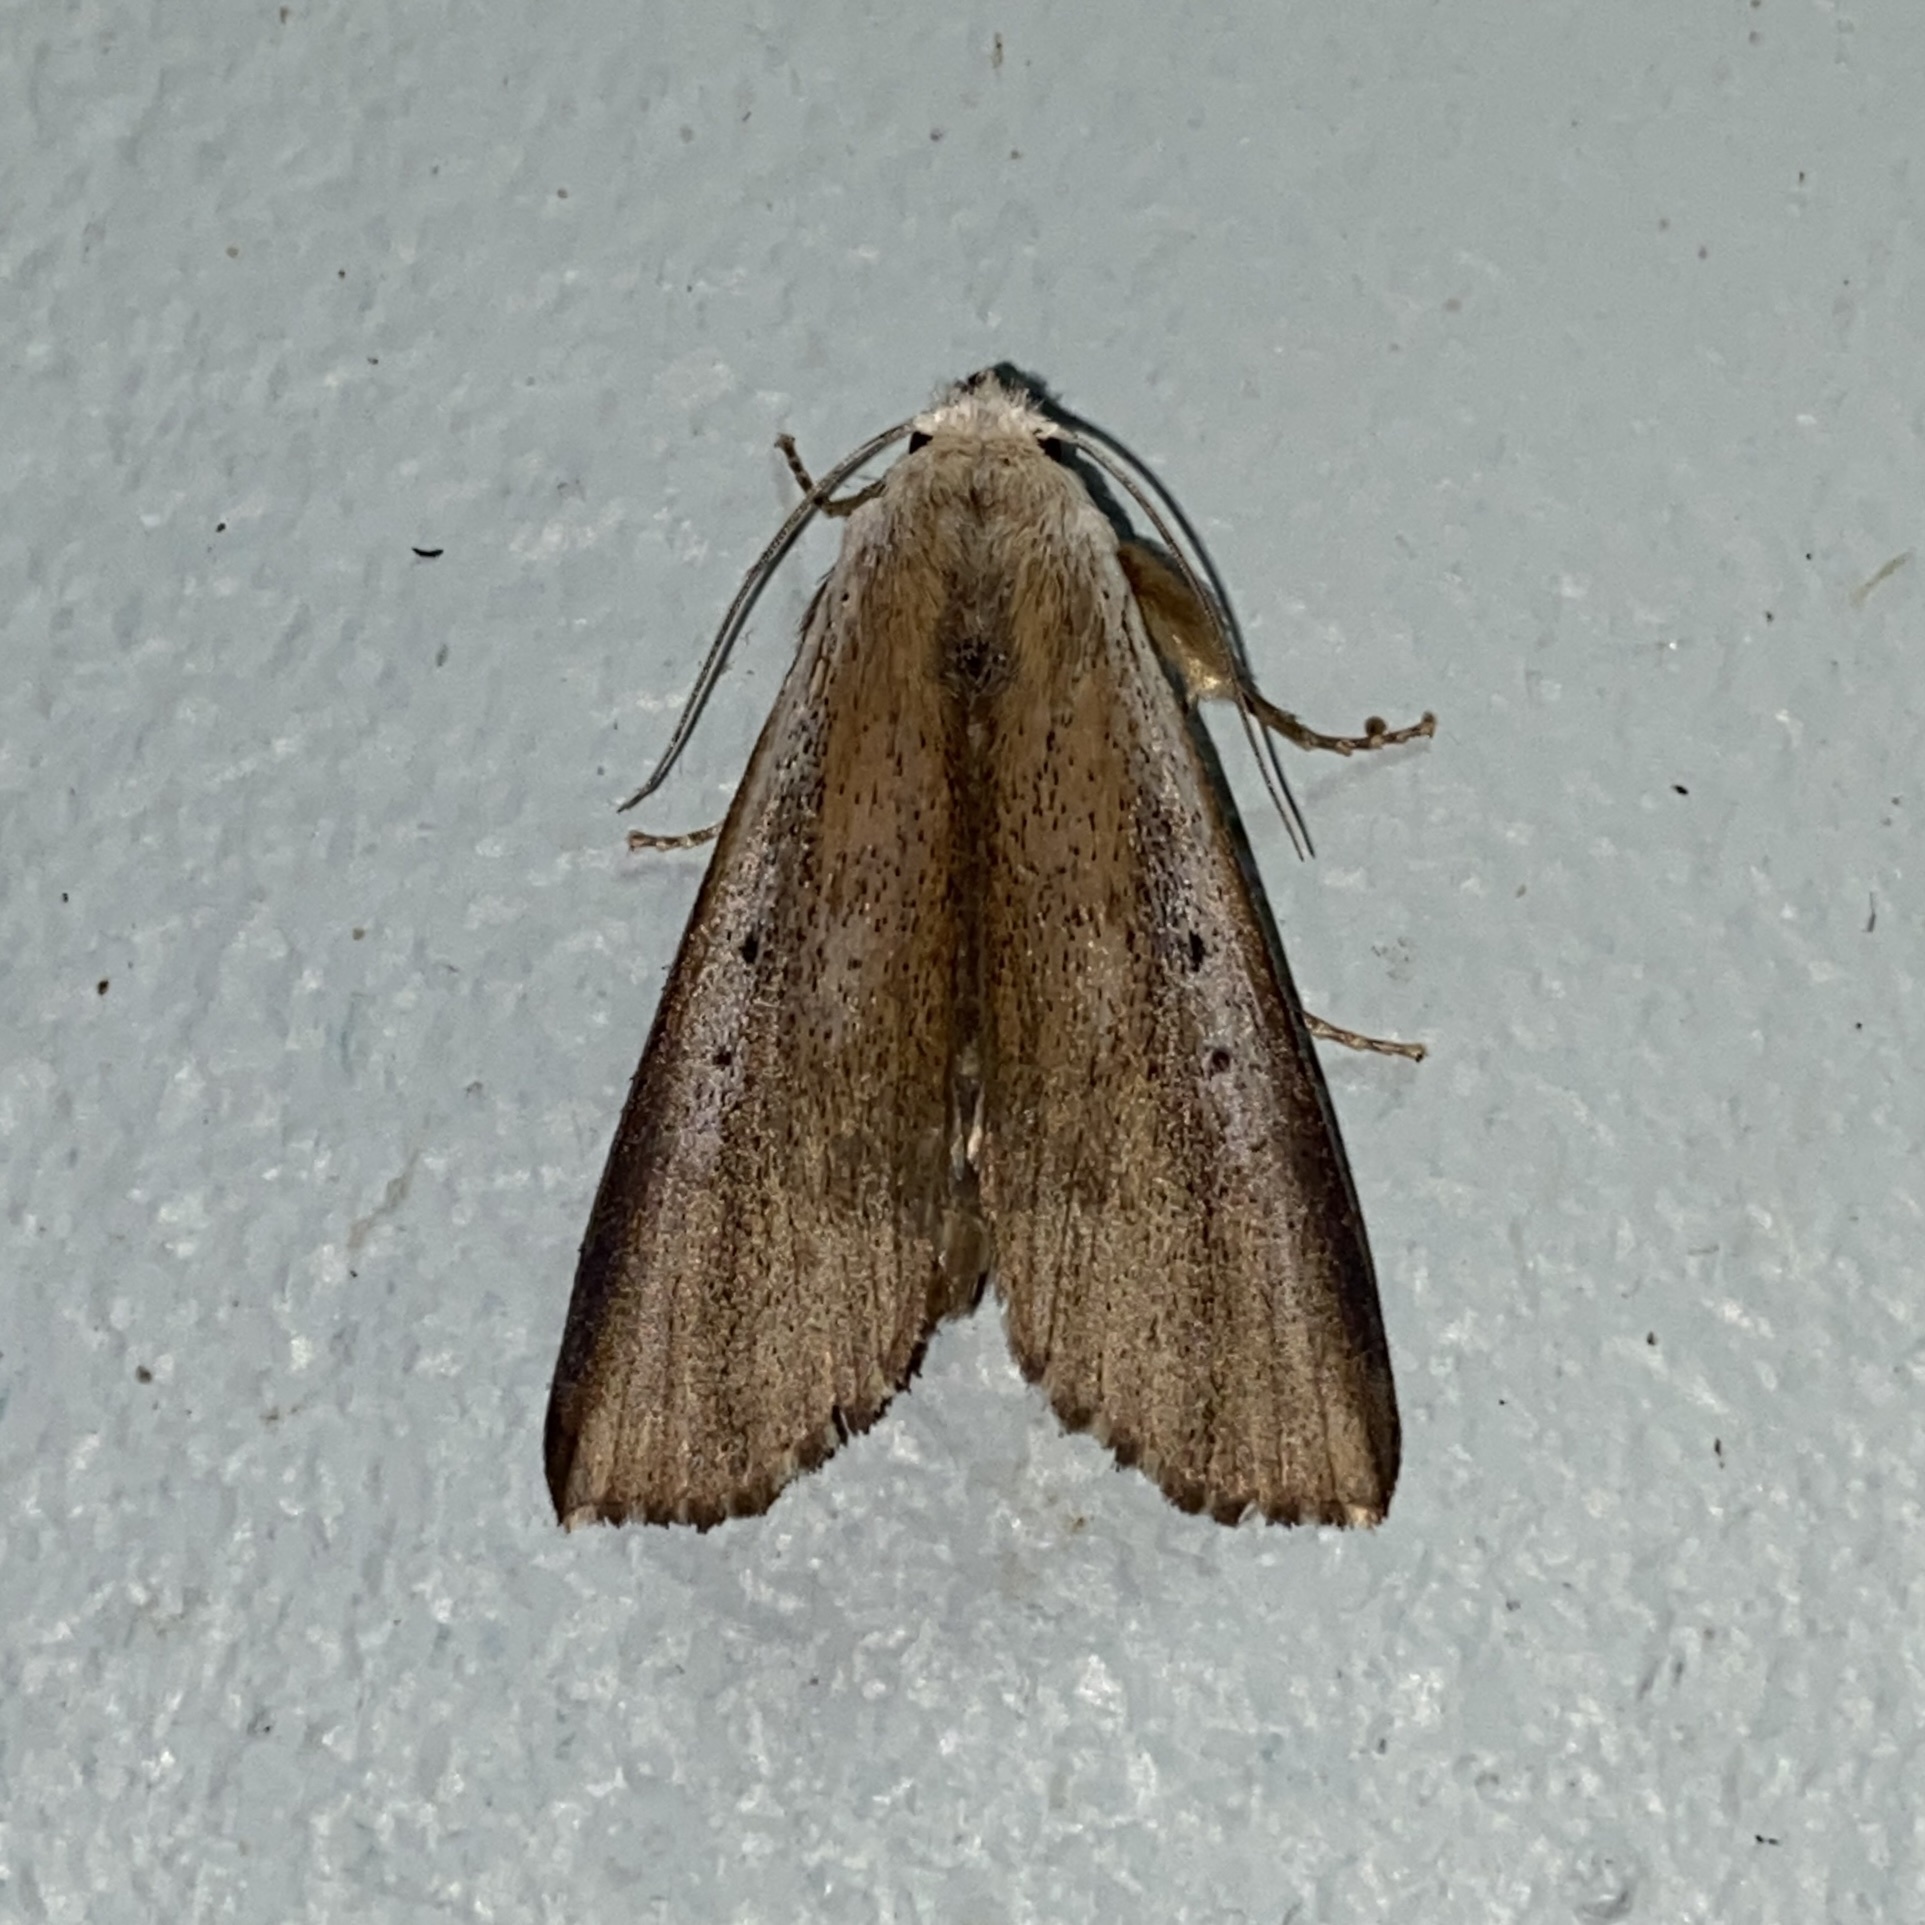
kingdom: Animalia
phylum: Arthropoda
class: Insecta
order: Lepidoptera
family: Erebidae
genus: Acanthermia
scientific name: Acanthermia insulsa
